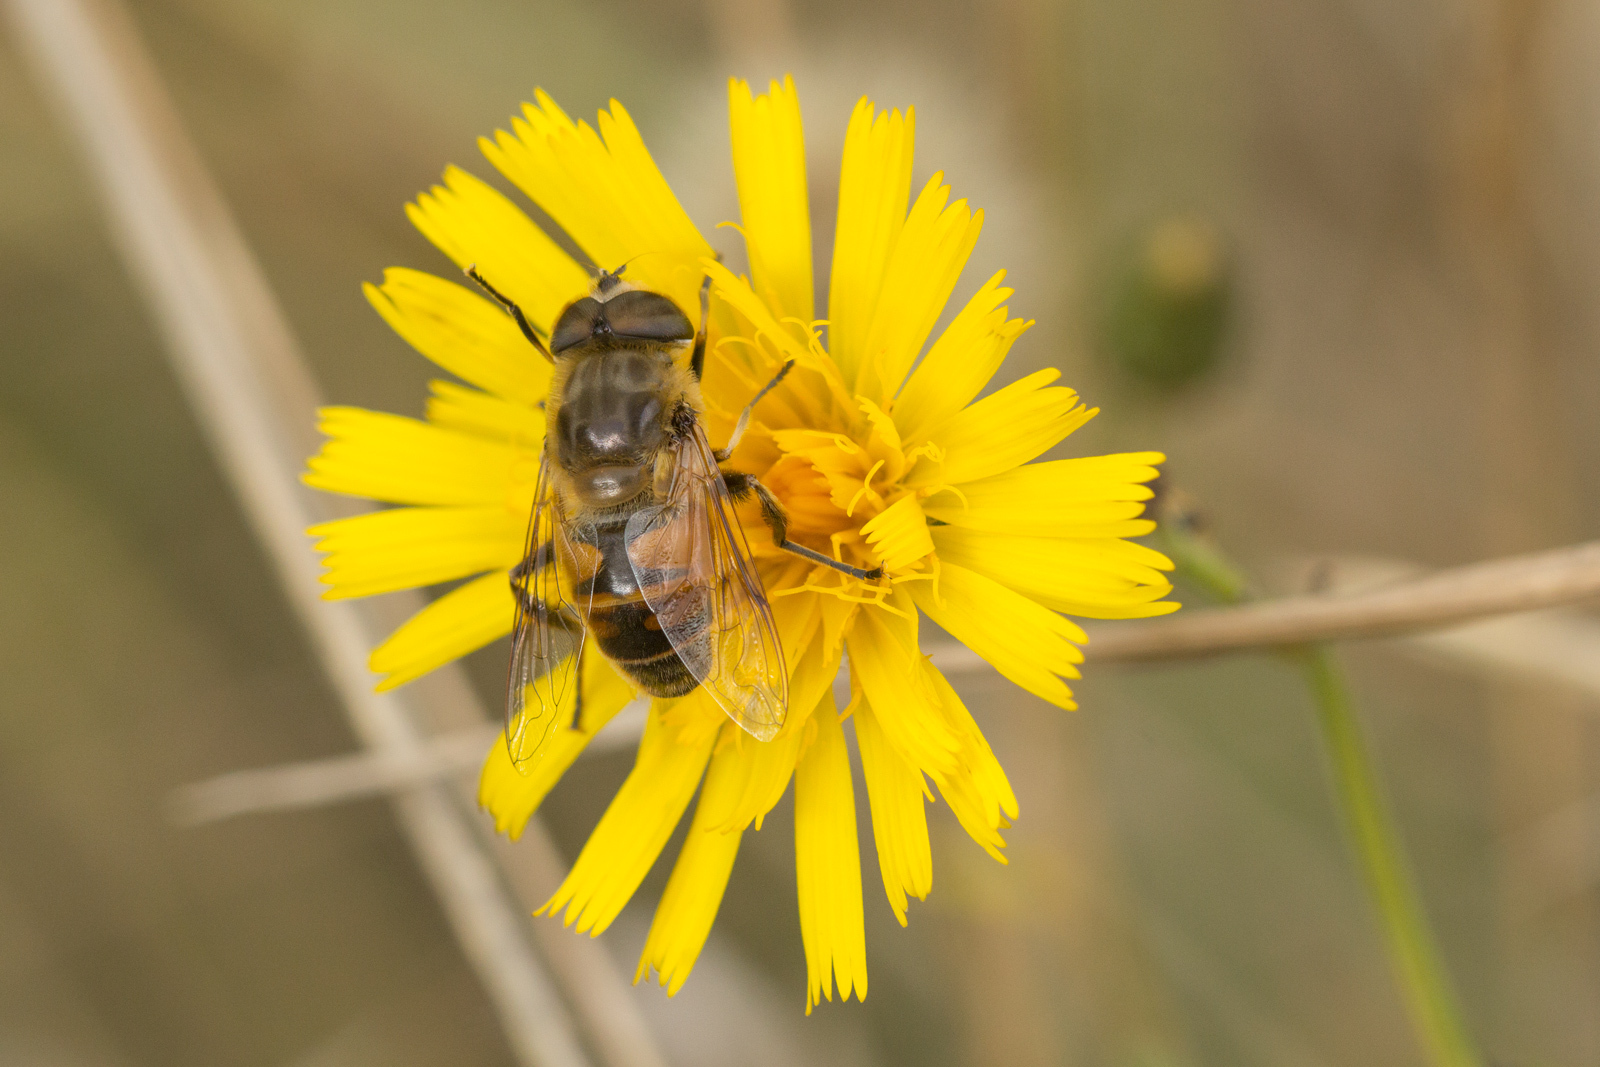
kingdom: Animalia
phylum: Arthropoda
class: Insecta
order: Diptera
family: Syrphidae
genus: Eristalis
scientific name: Eristalis tenax
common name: Drone fly
